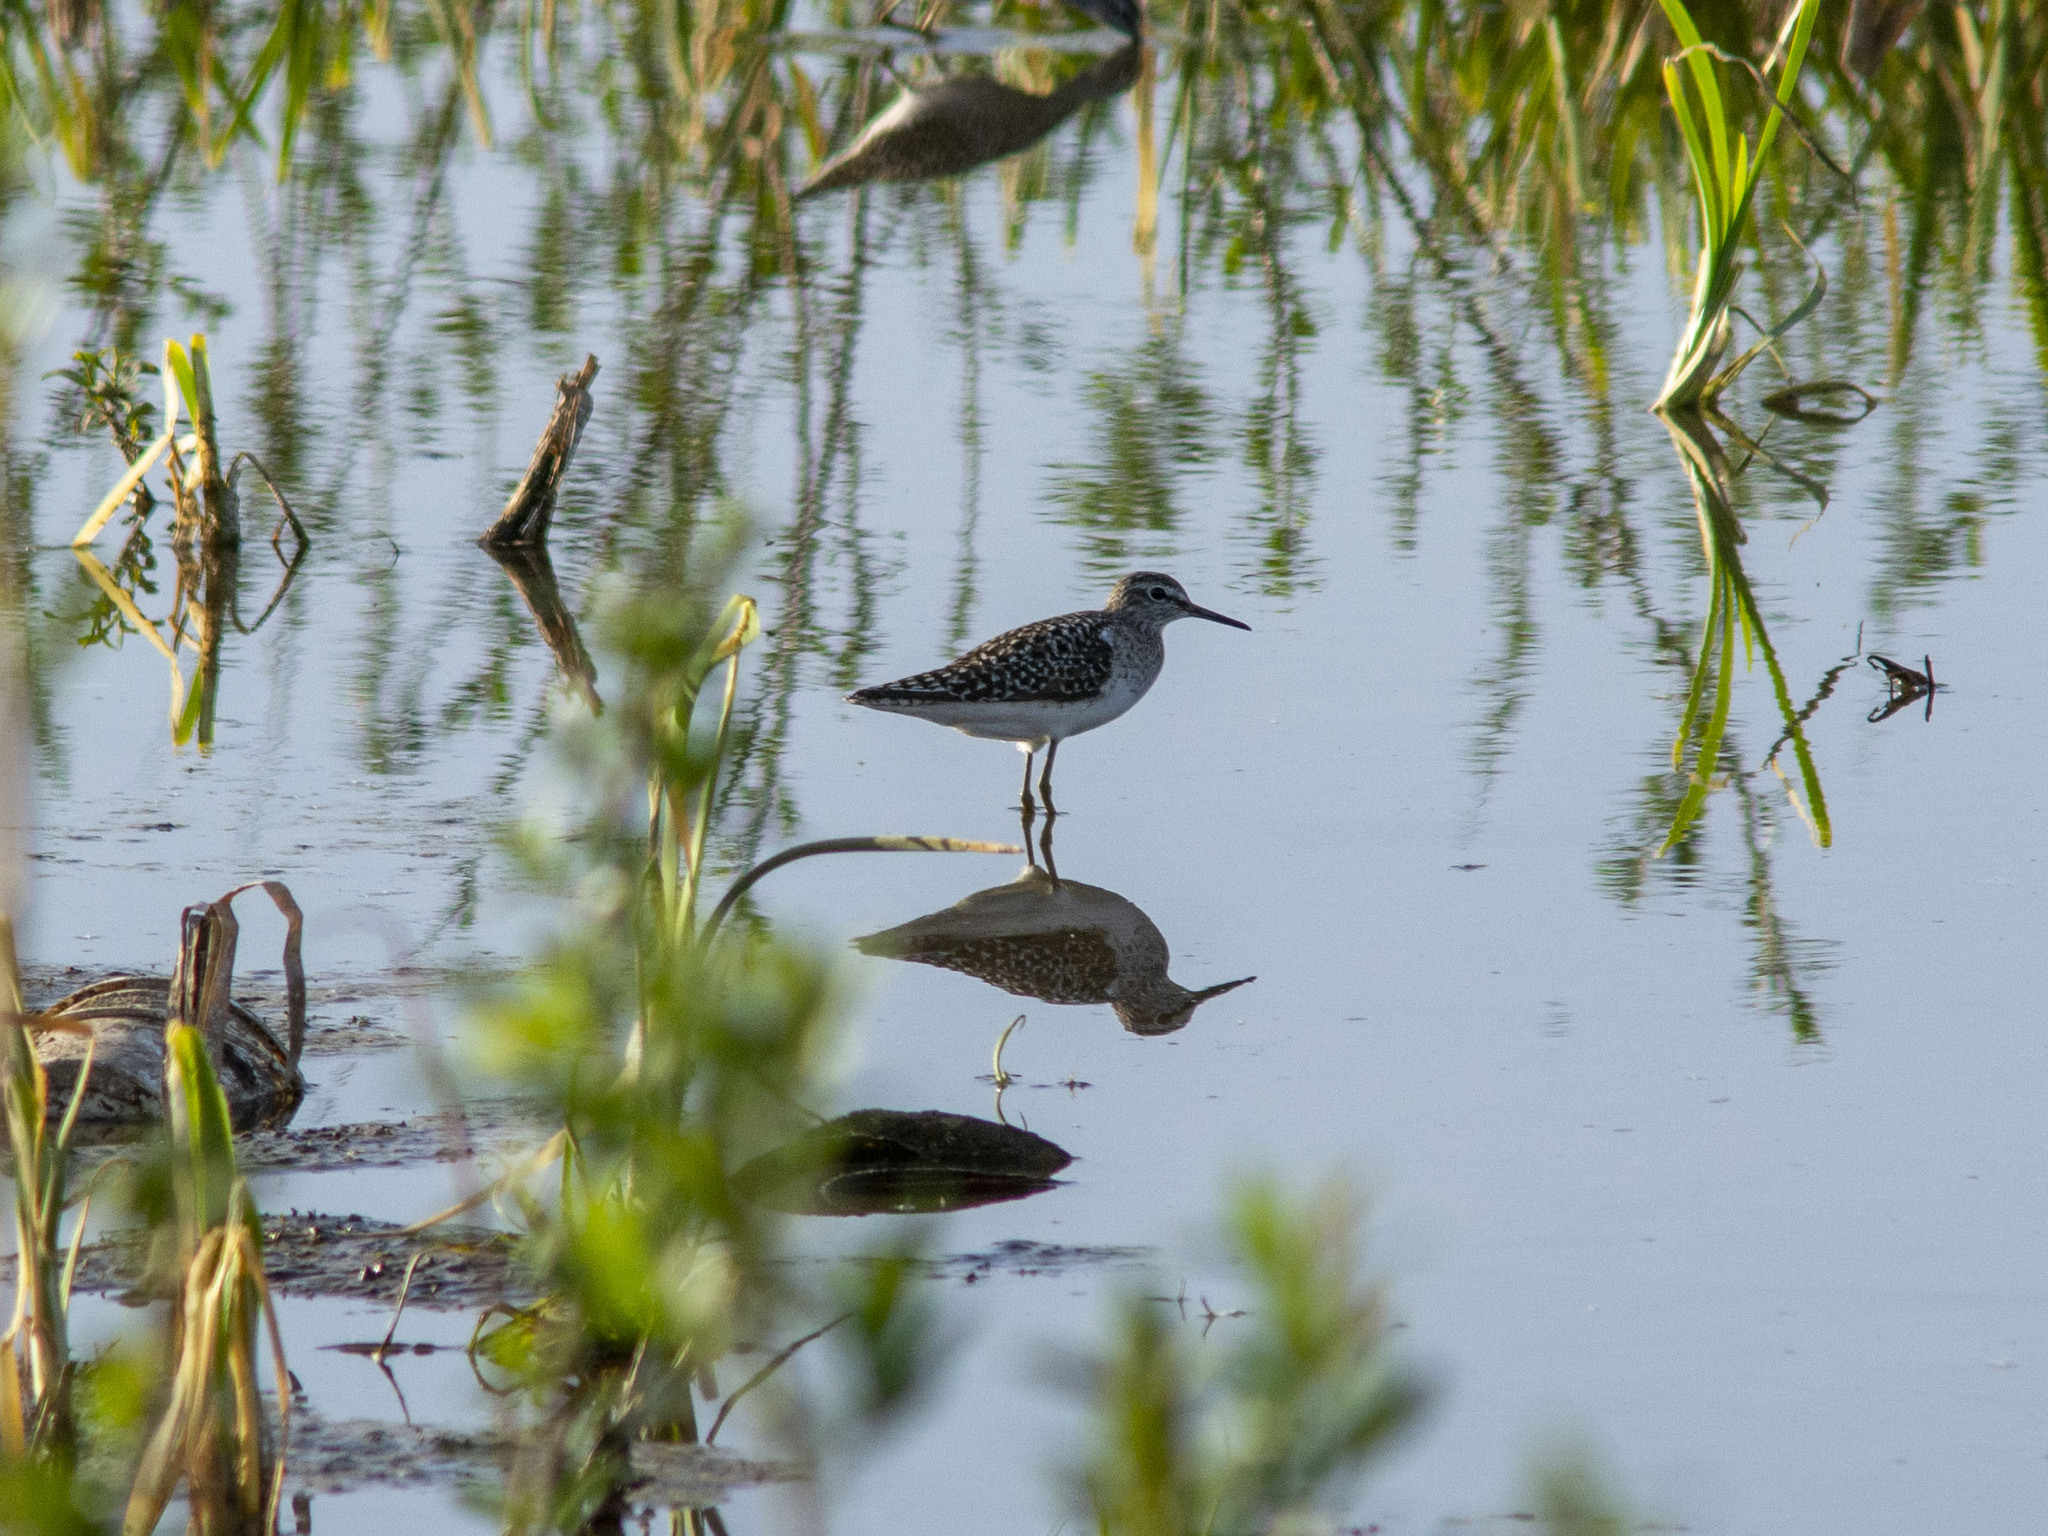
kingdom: Animalia
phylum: Chordata
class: Aves
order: Charadriiformes
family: Scolopacidae
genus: Tringa
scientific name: Tringa glareola
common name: Wood sandpiper
